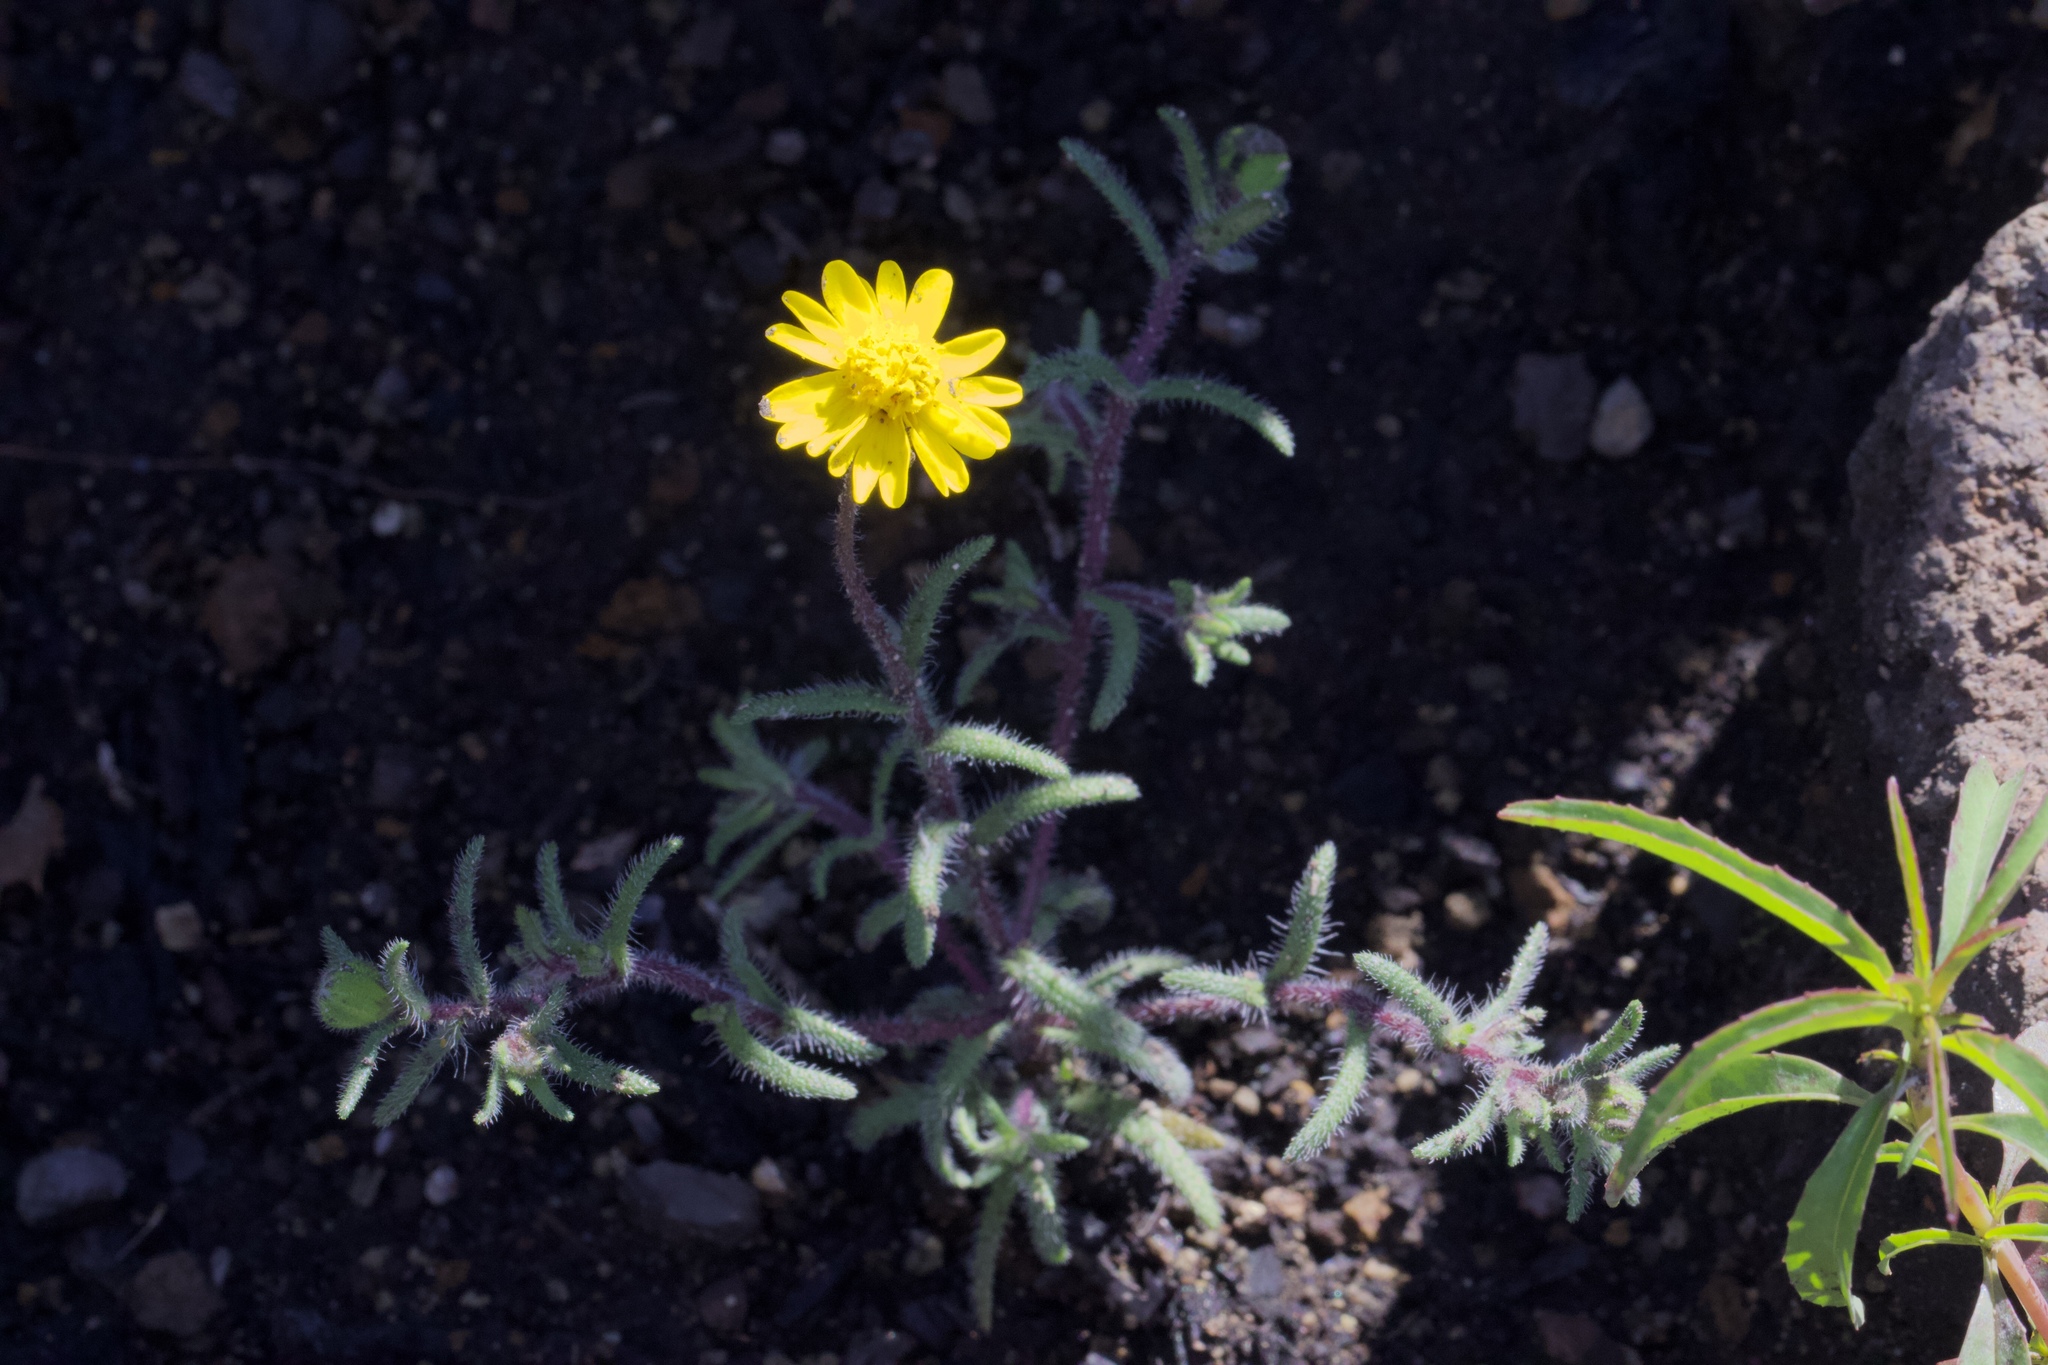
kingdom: Plantae
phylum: Tracheophyta
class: Magnoliopsida
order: Asterales
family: Asteraceae
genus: Harmonia
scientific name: Harmonia nutans
